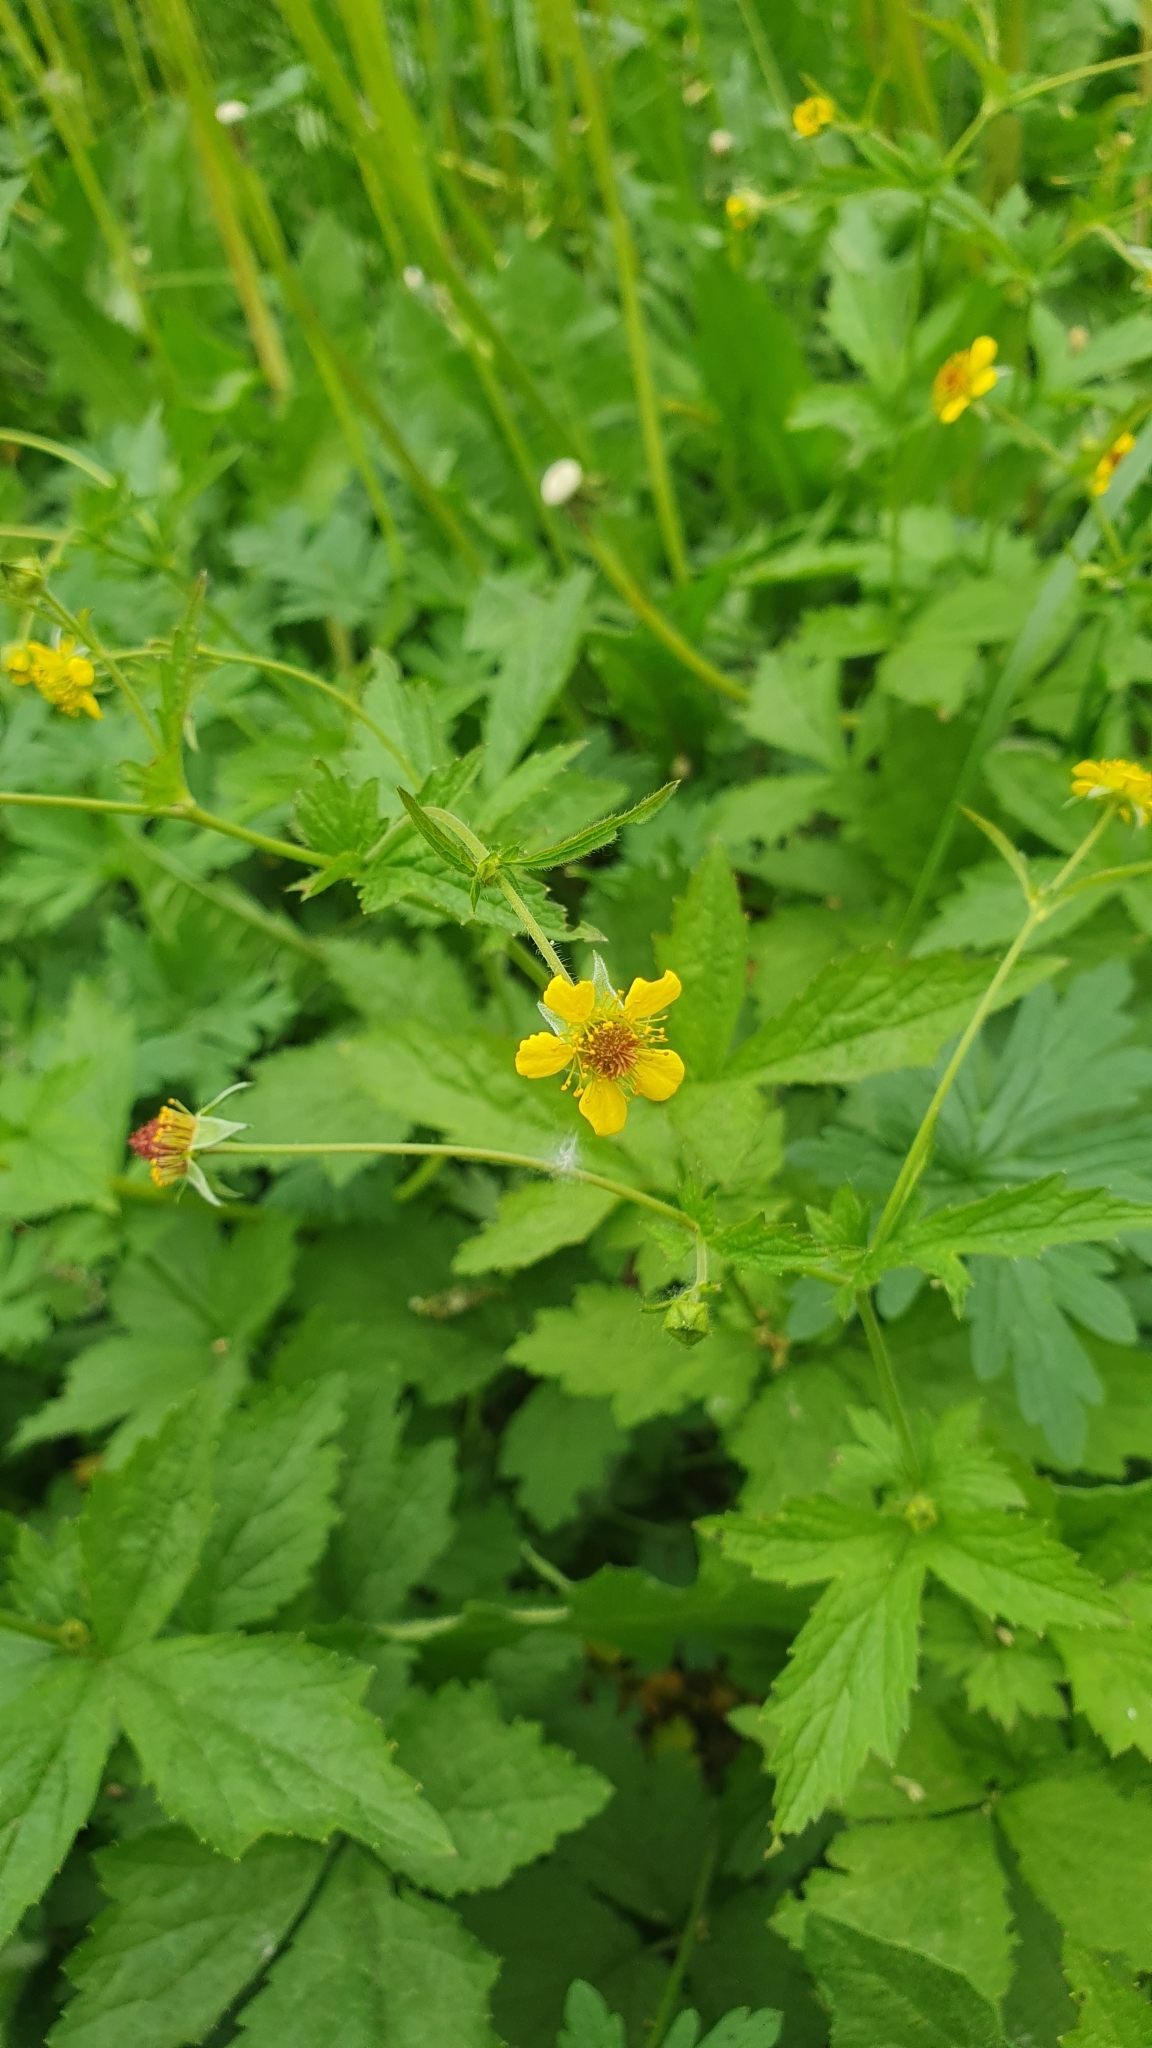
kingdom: Plantae
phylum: Tracheophyta
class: Magnoliopsida
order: Rosales
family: Rosaceae
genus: Geum
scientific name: Geum urbanum
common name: Wood avens
